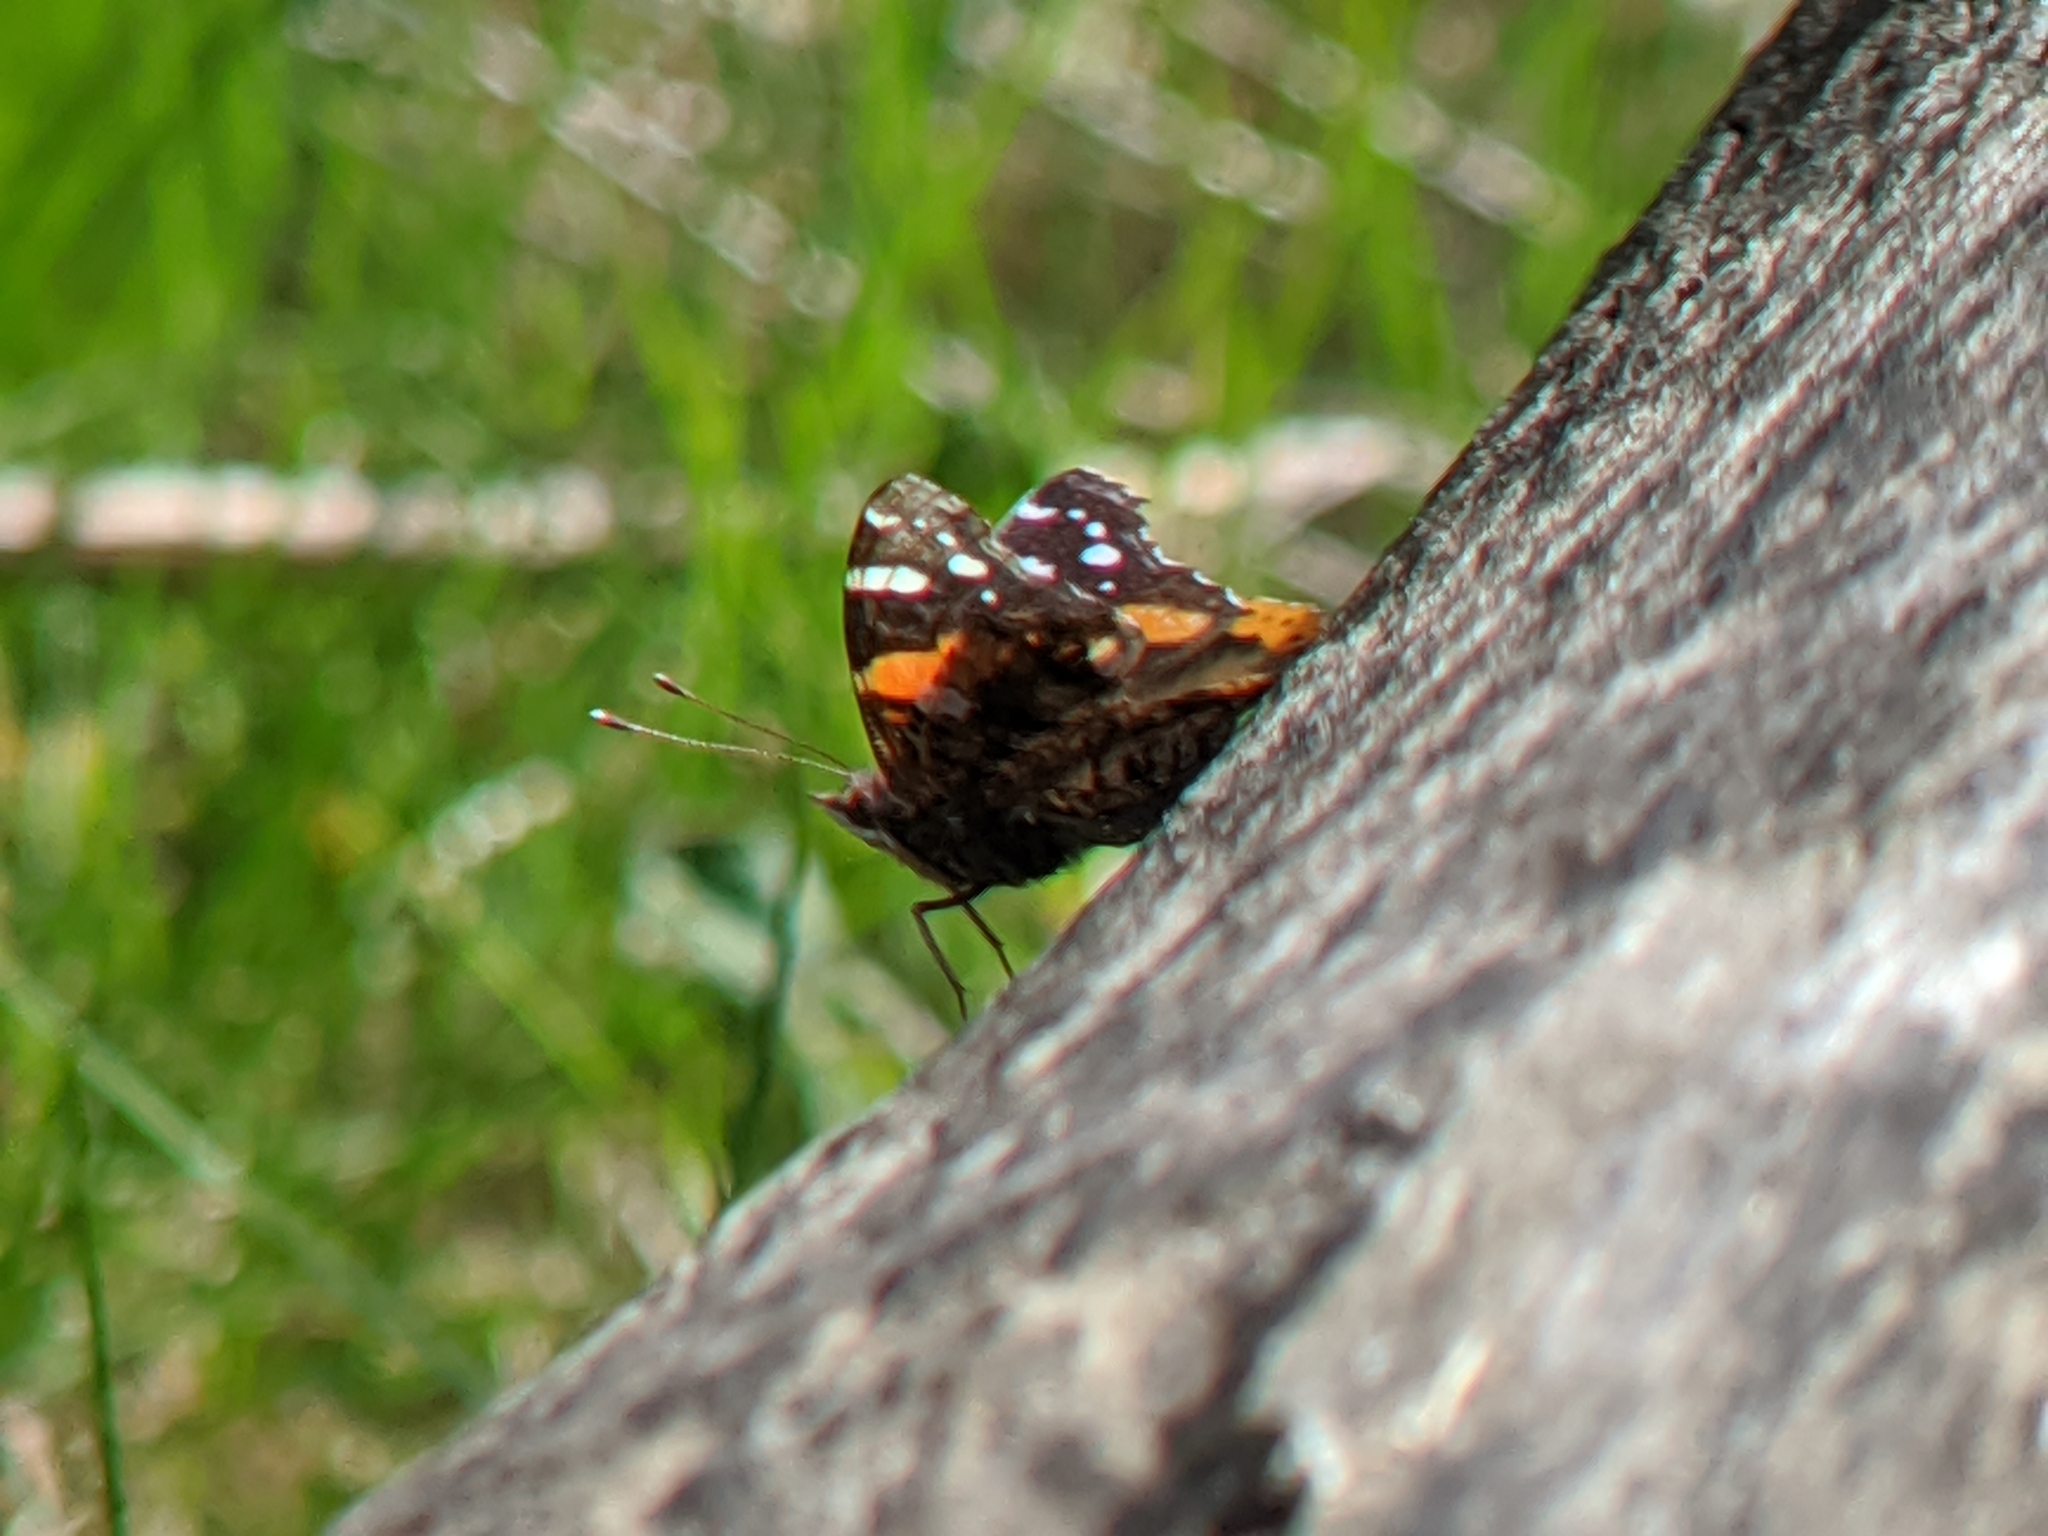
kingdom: Animalia
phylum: Arthropoda
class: Insecta
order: Lepidoptera
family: Nymphalidae
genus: Vanessa
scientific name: Vanessa atalanta
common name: Red admiral
